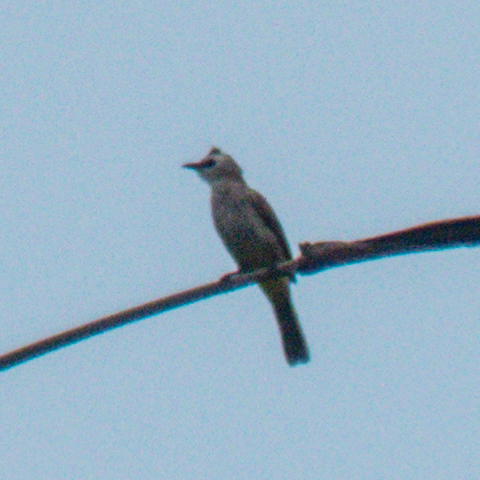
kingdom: Animalia
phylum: Chordata
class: Aves
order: Passeriformes
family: Pycnonotidae
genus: Pycnonotus
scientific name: Pycnonotus goiavier
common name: Yellow-vented bulbul
